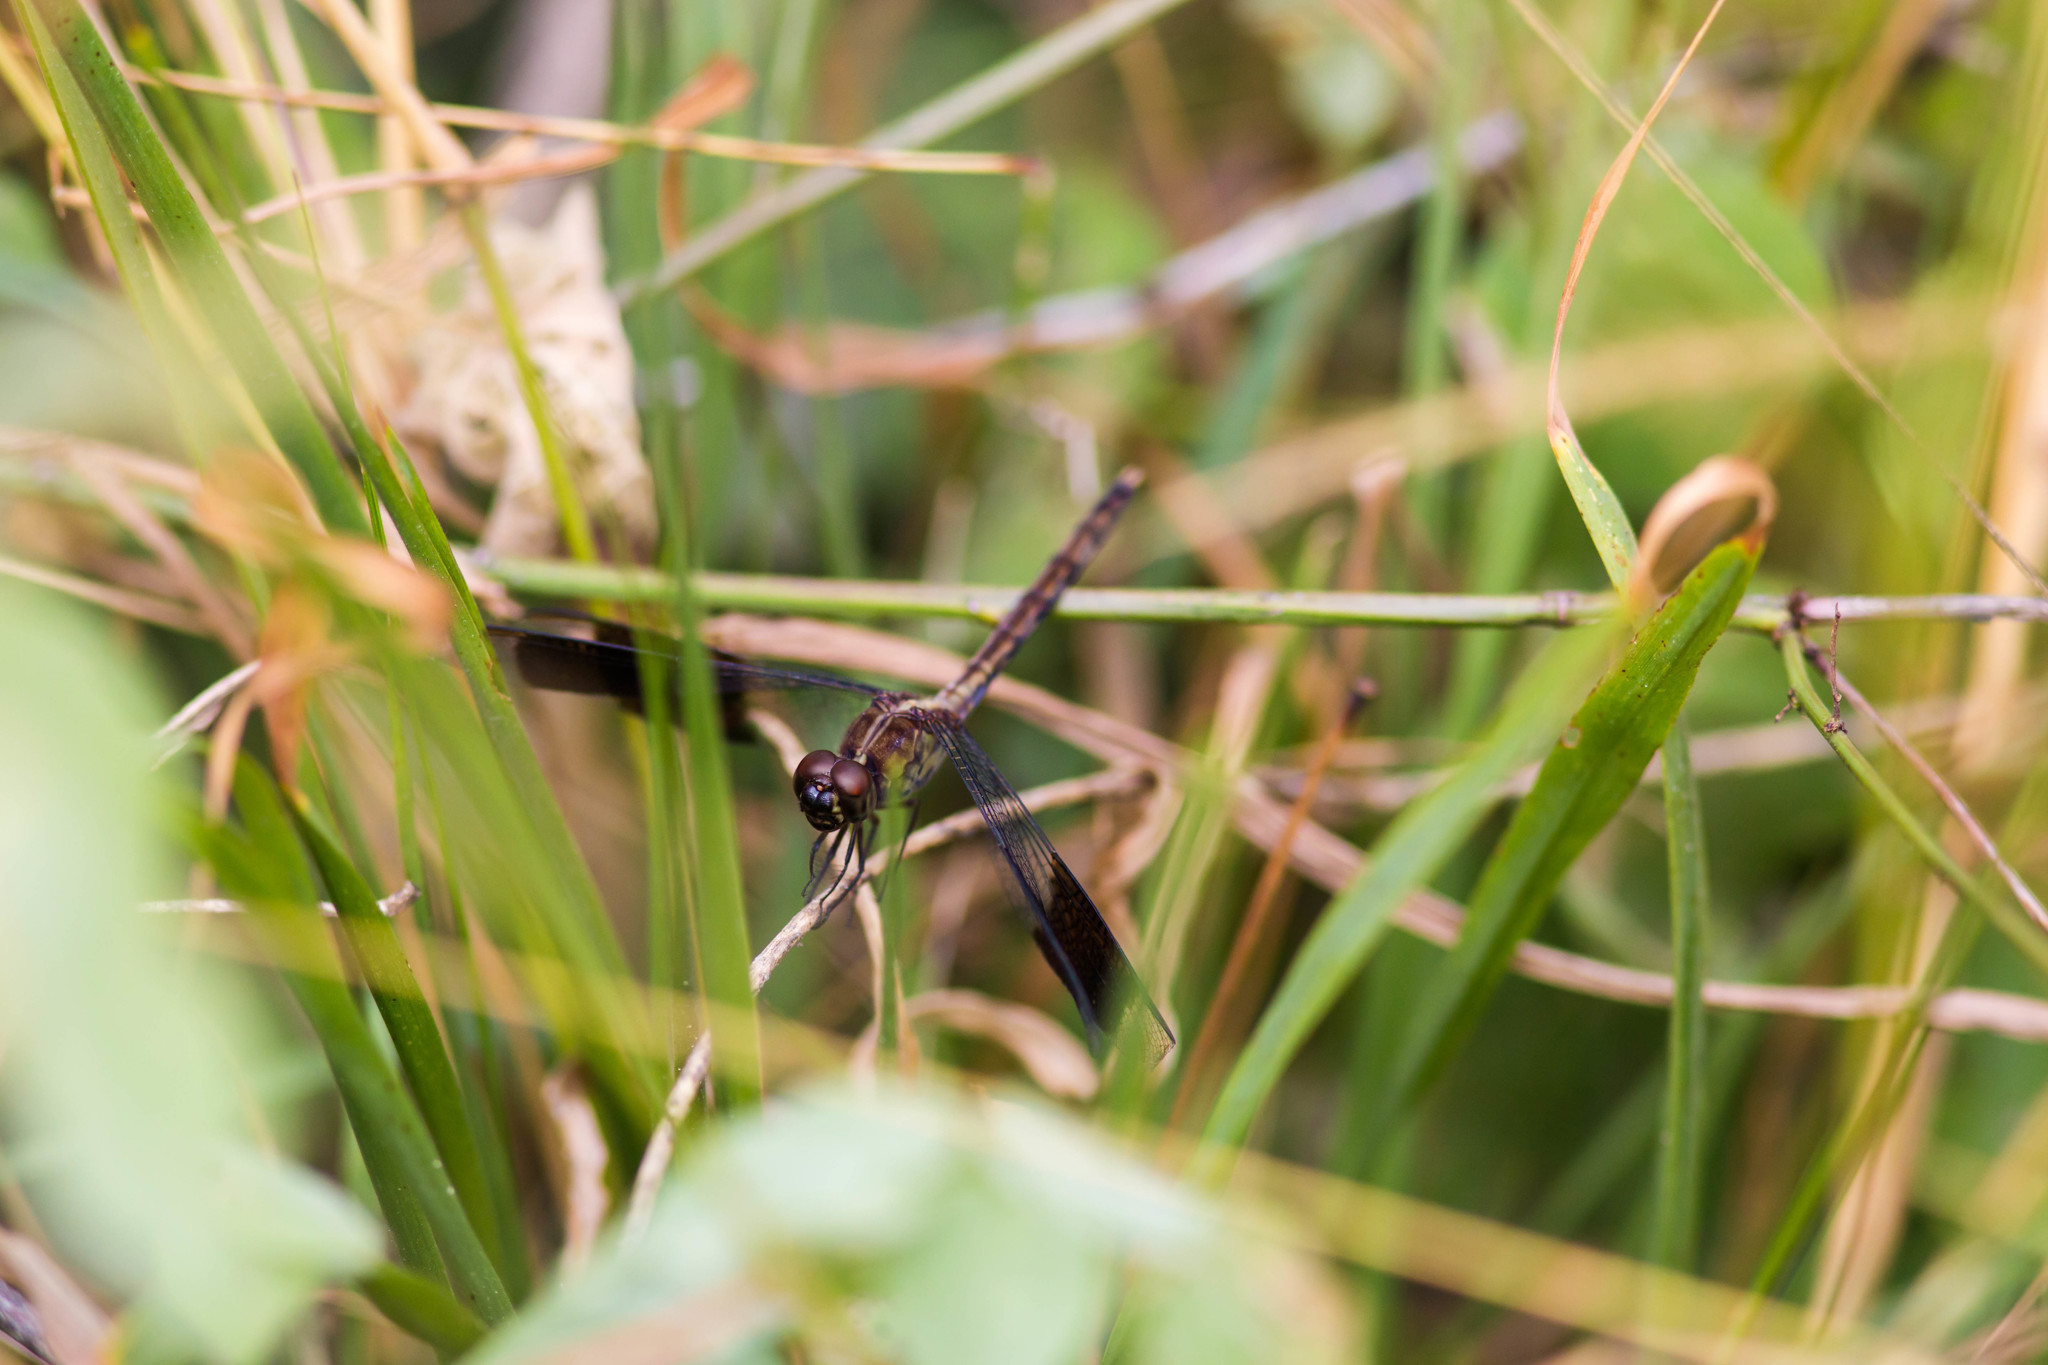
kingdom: Animalia
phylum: Arthropoda
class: Insecta
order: Odonata
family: Libellulidae
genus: Erythrodiplax
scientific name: Erythrodiplax umbrata
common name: Band-winged dragonlet
